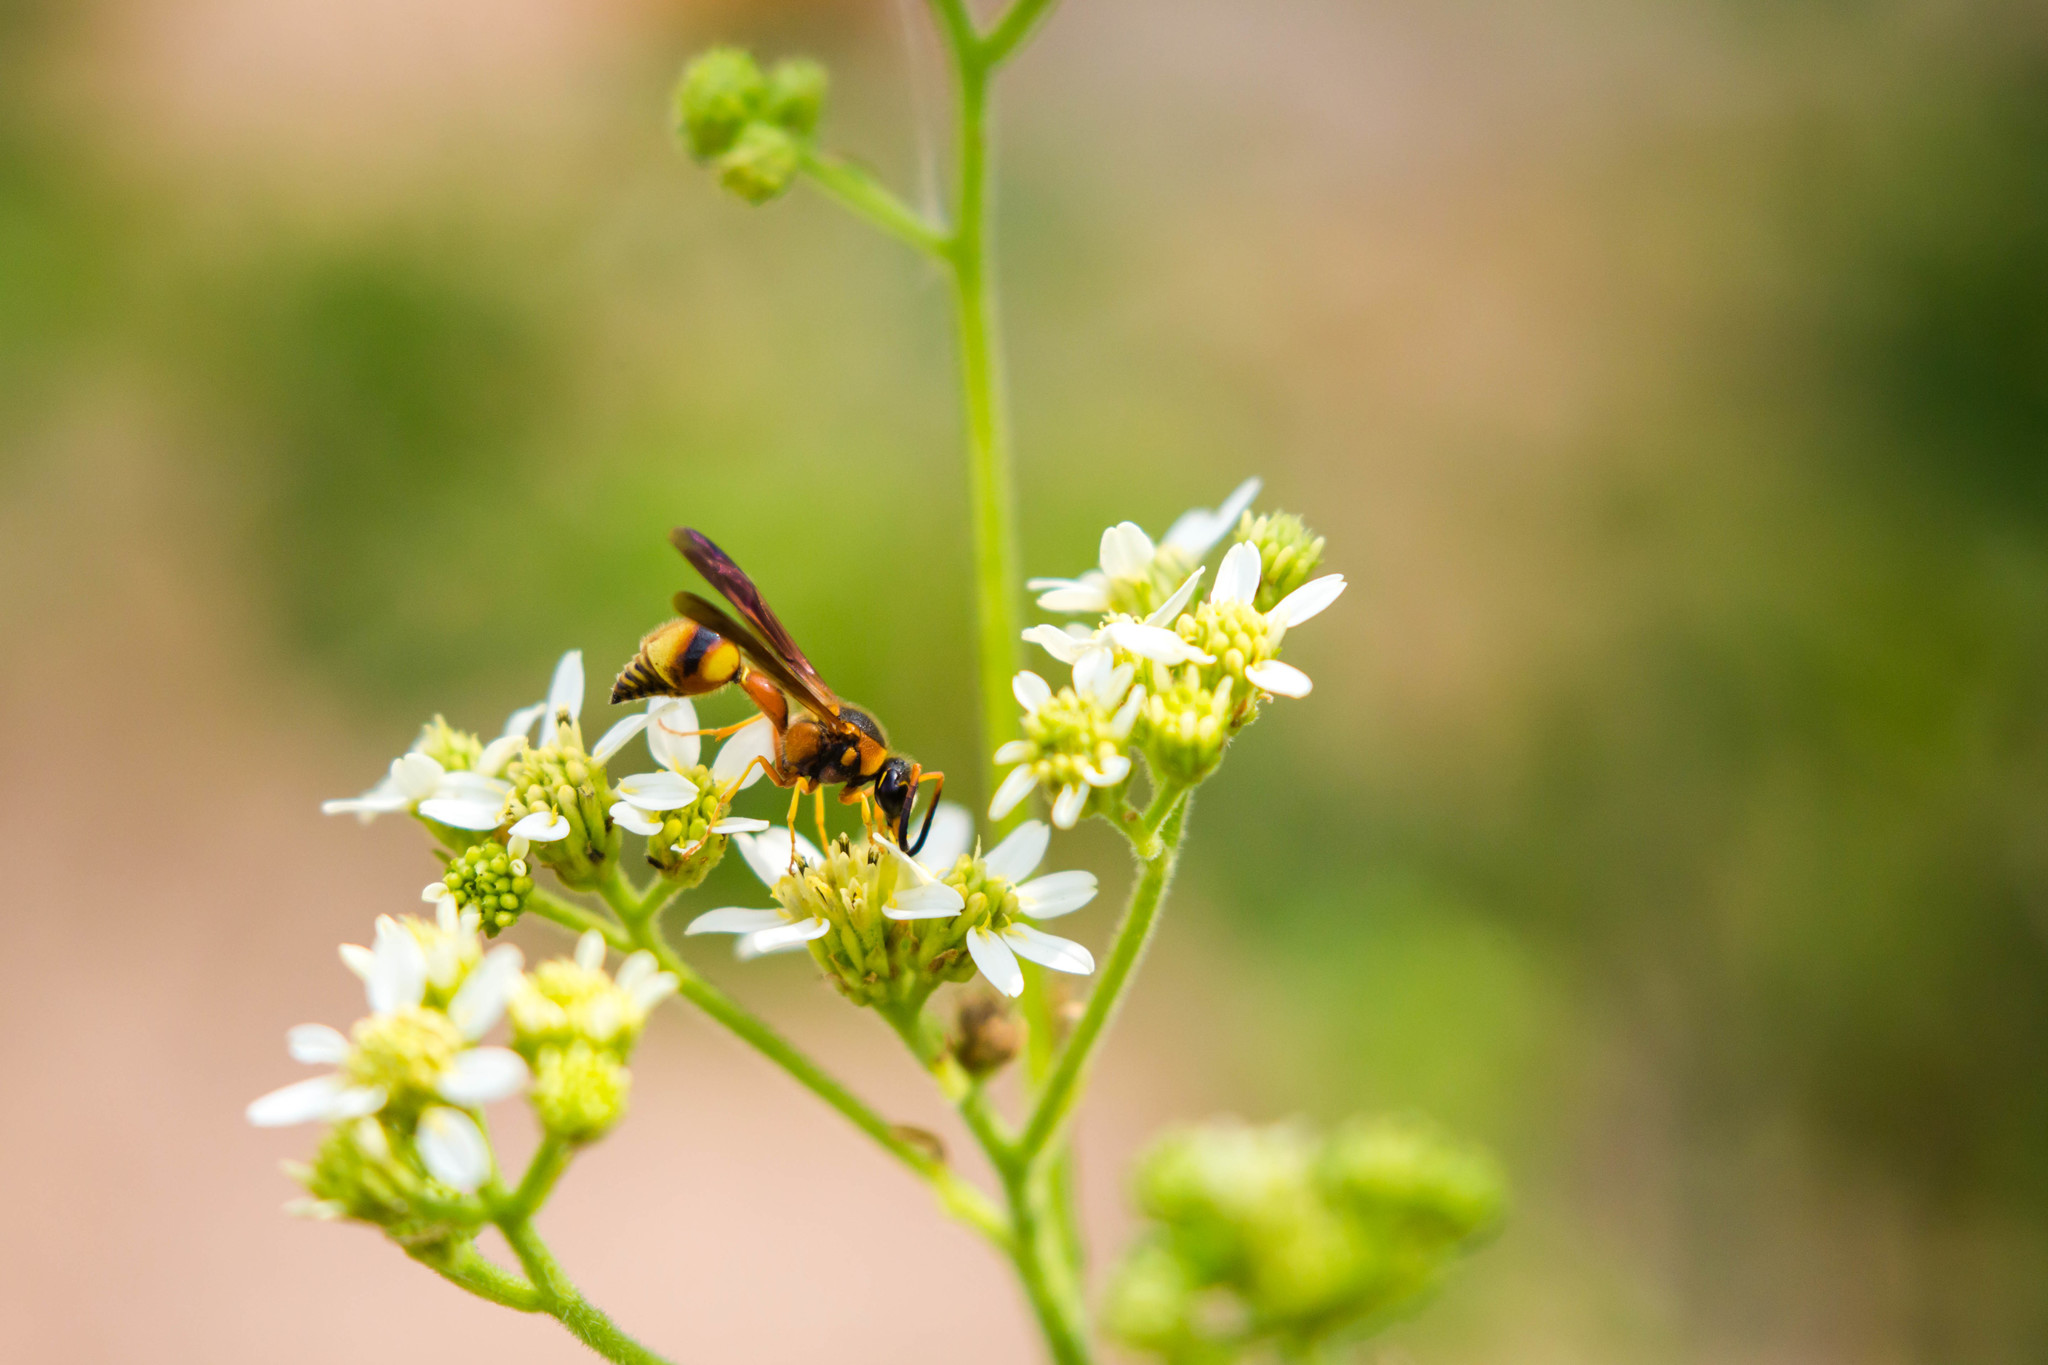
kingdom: Animalia
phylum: Arthropoda
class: Insecta
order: Hymenoptera
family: Vespidae
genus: Eumenes
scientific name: Eumenes bollii
